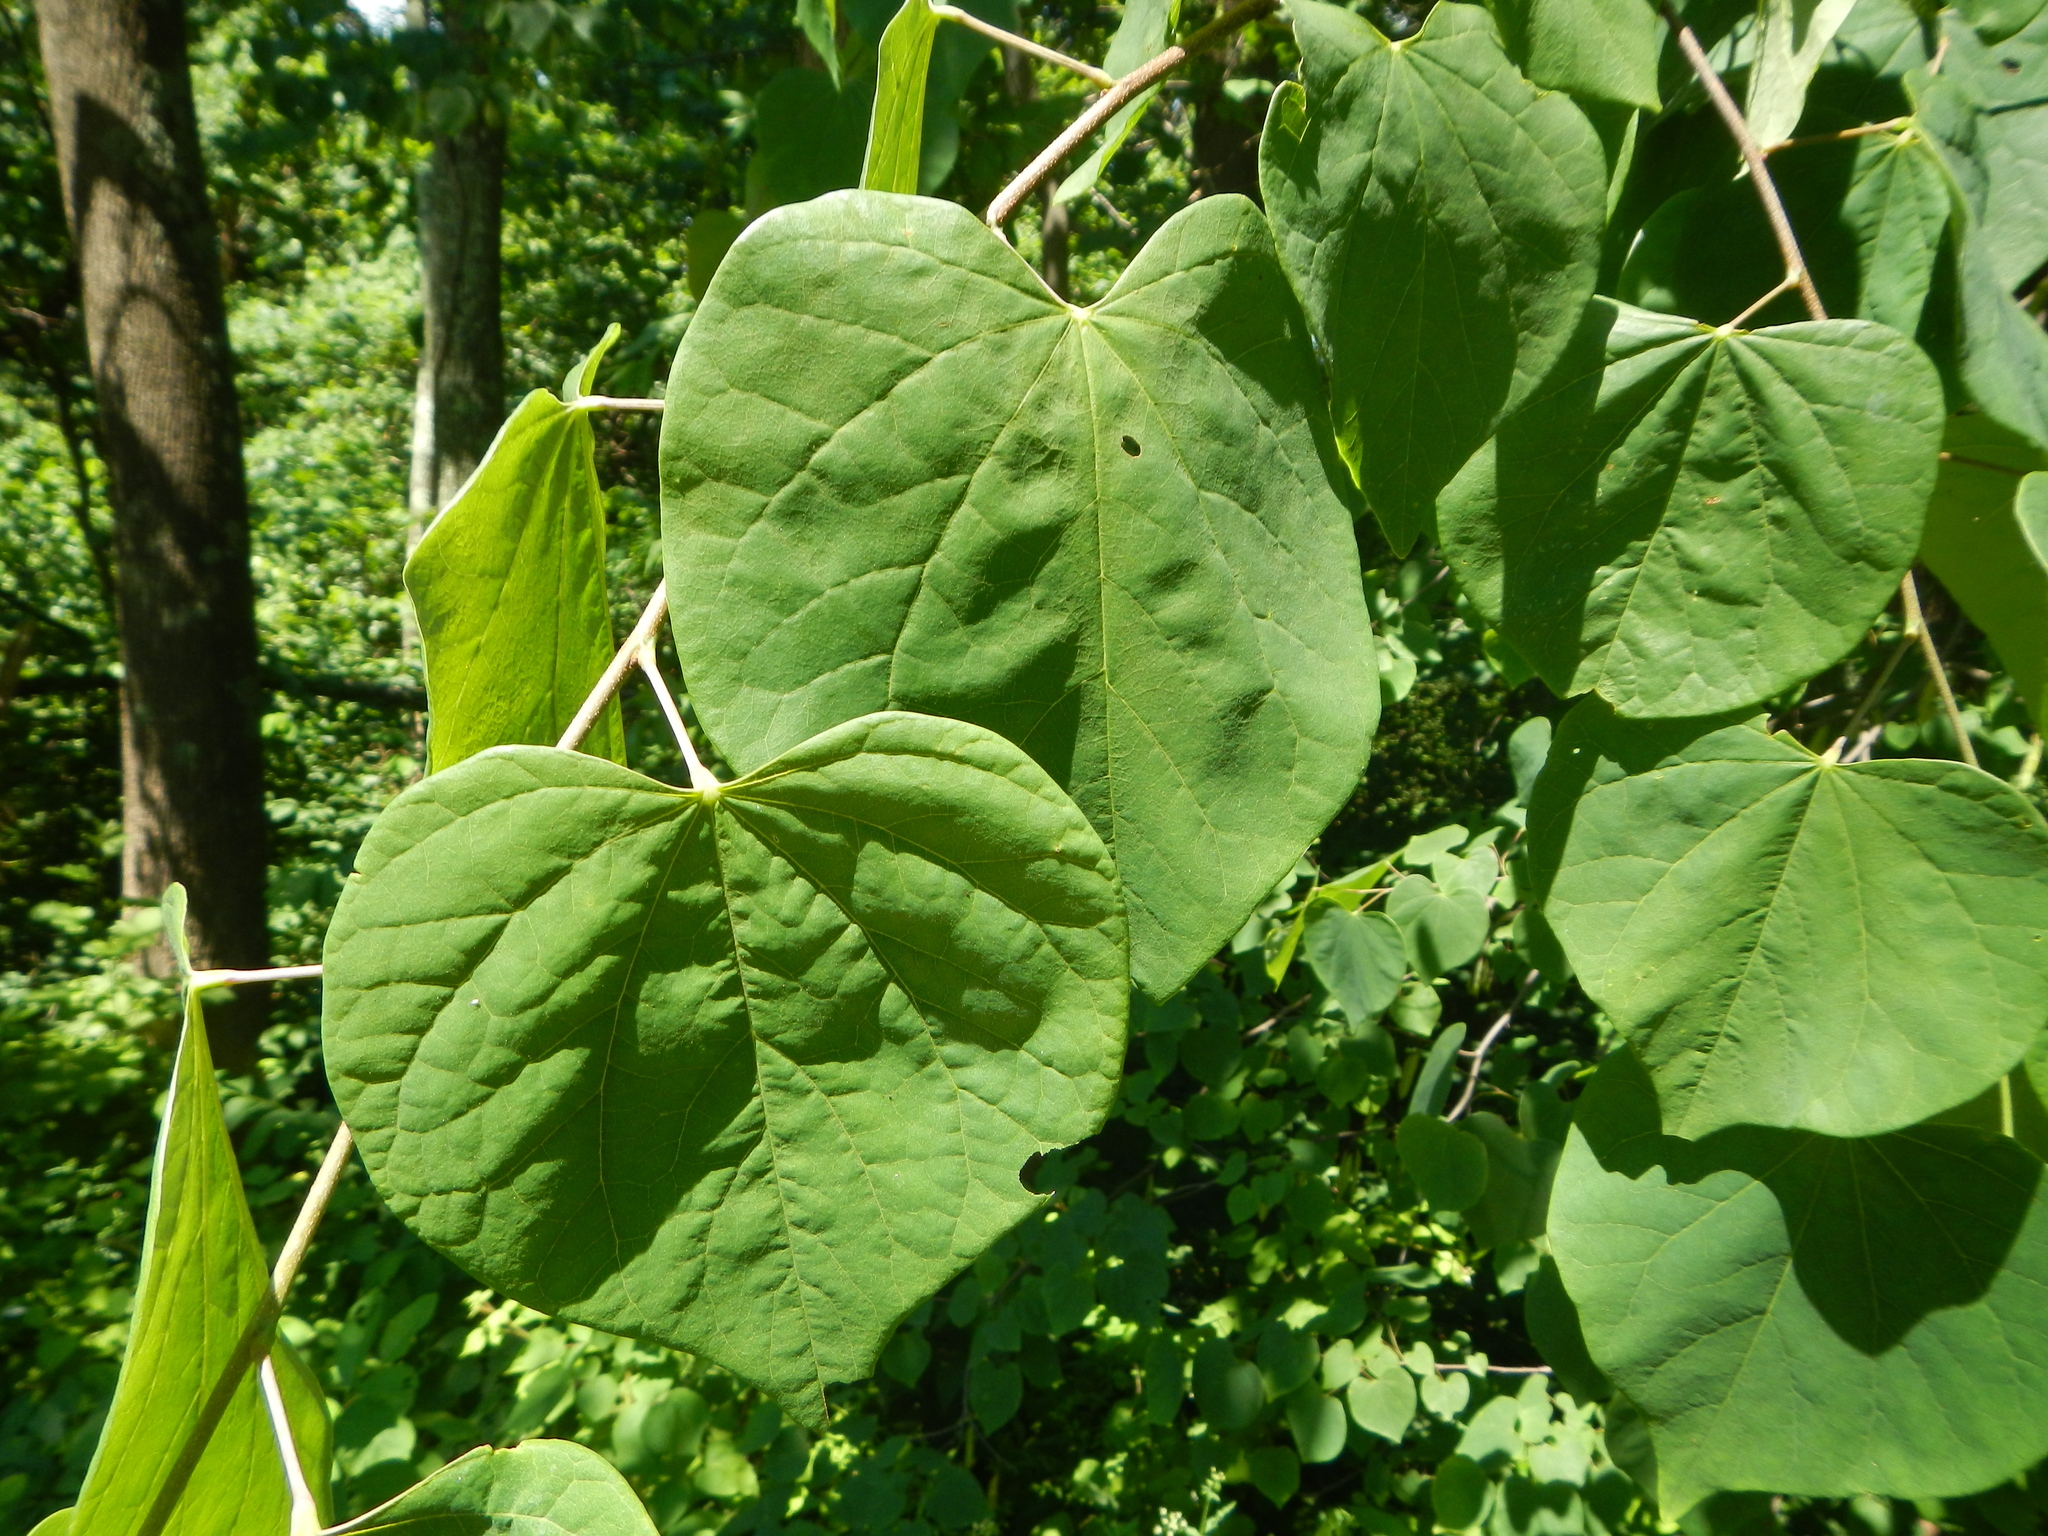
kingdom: Plantae
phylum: Tracheophyta
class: Magnoliopsida
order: Fabales
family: Fabaceae
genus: Cercis
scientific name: Cercis canadensis
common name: Eastern redbud
